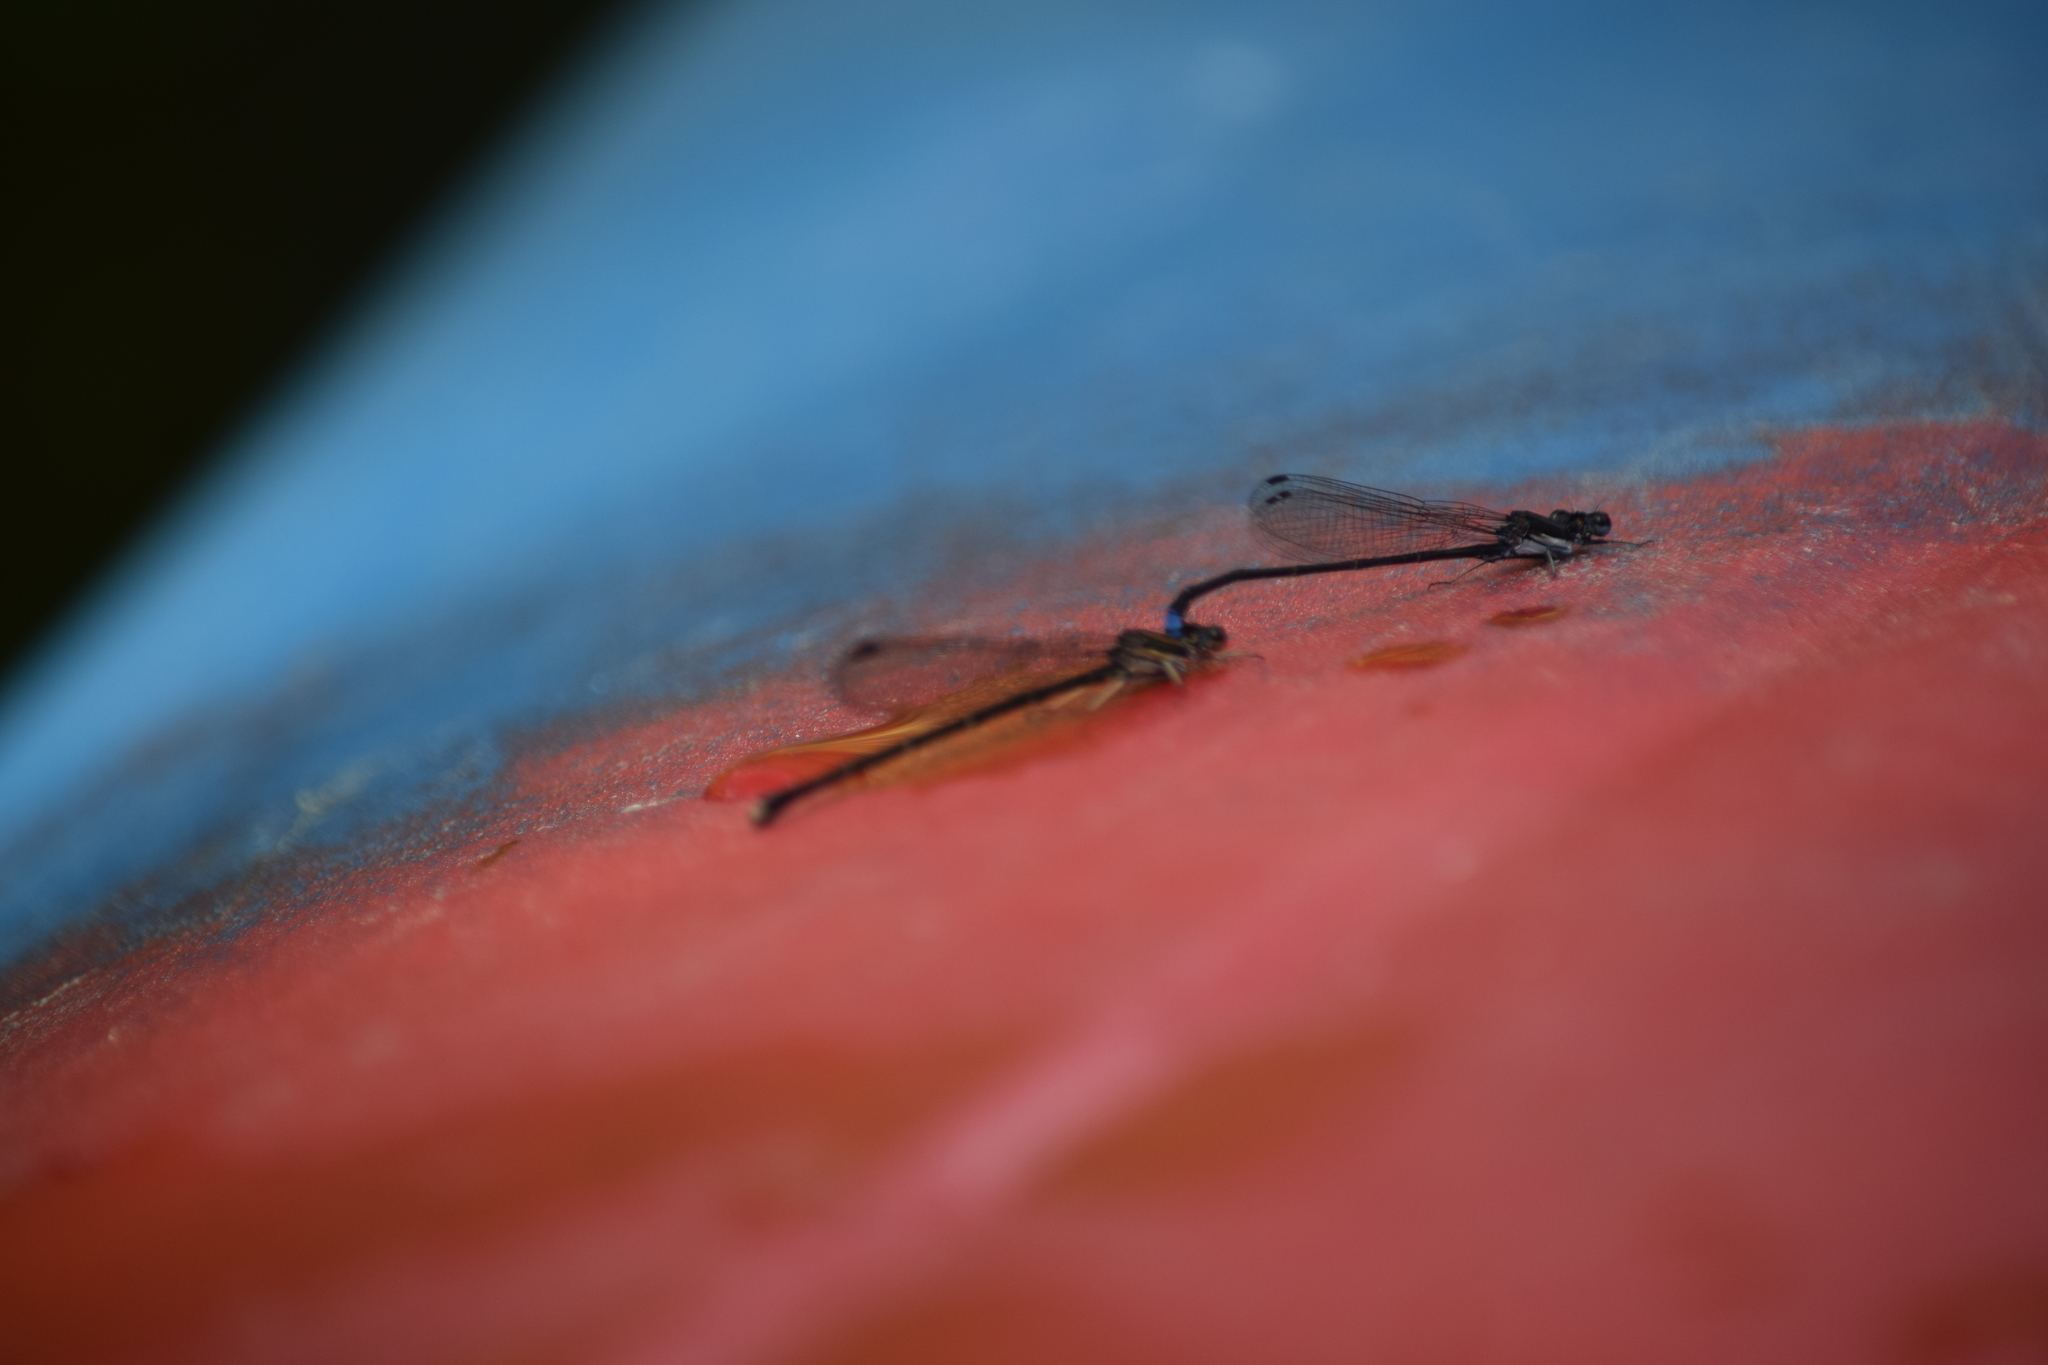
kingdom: Animalia
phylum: Arthropoda
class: Insecta
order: Odonata
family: Coenagrionidae
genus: Argia
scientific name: Argia tibialis
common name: Blue-tipped dancer
